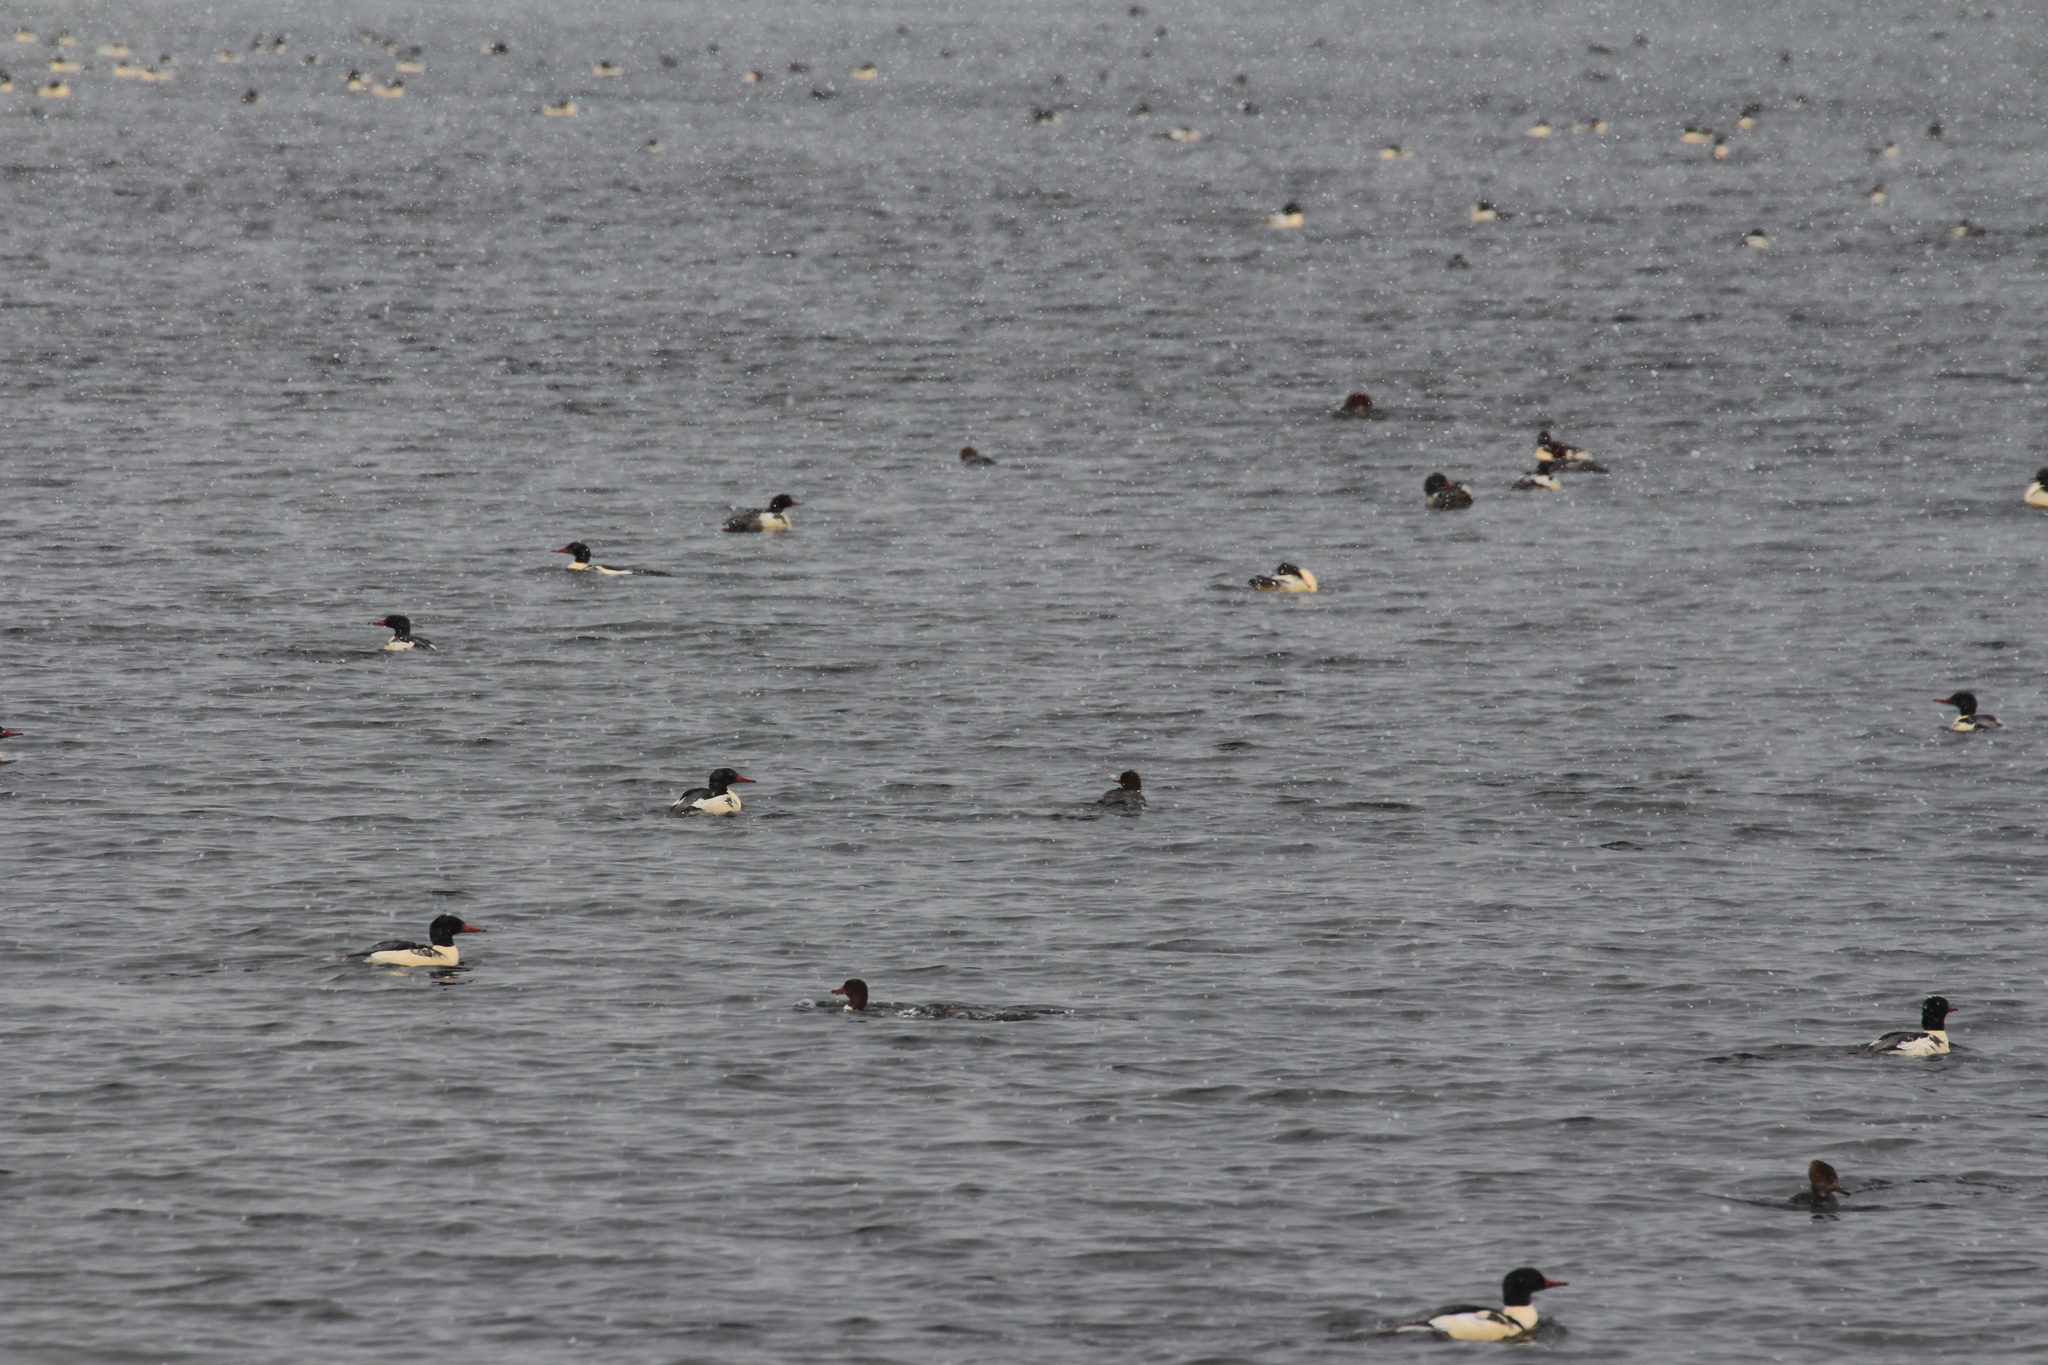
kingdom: Animalia
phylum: Chordata
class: Aves
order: Anseriformes
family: Anatidae
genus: Mergus
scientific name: Mergus merganser
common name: Common merganser
